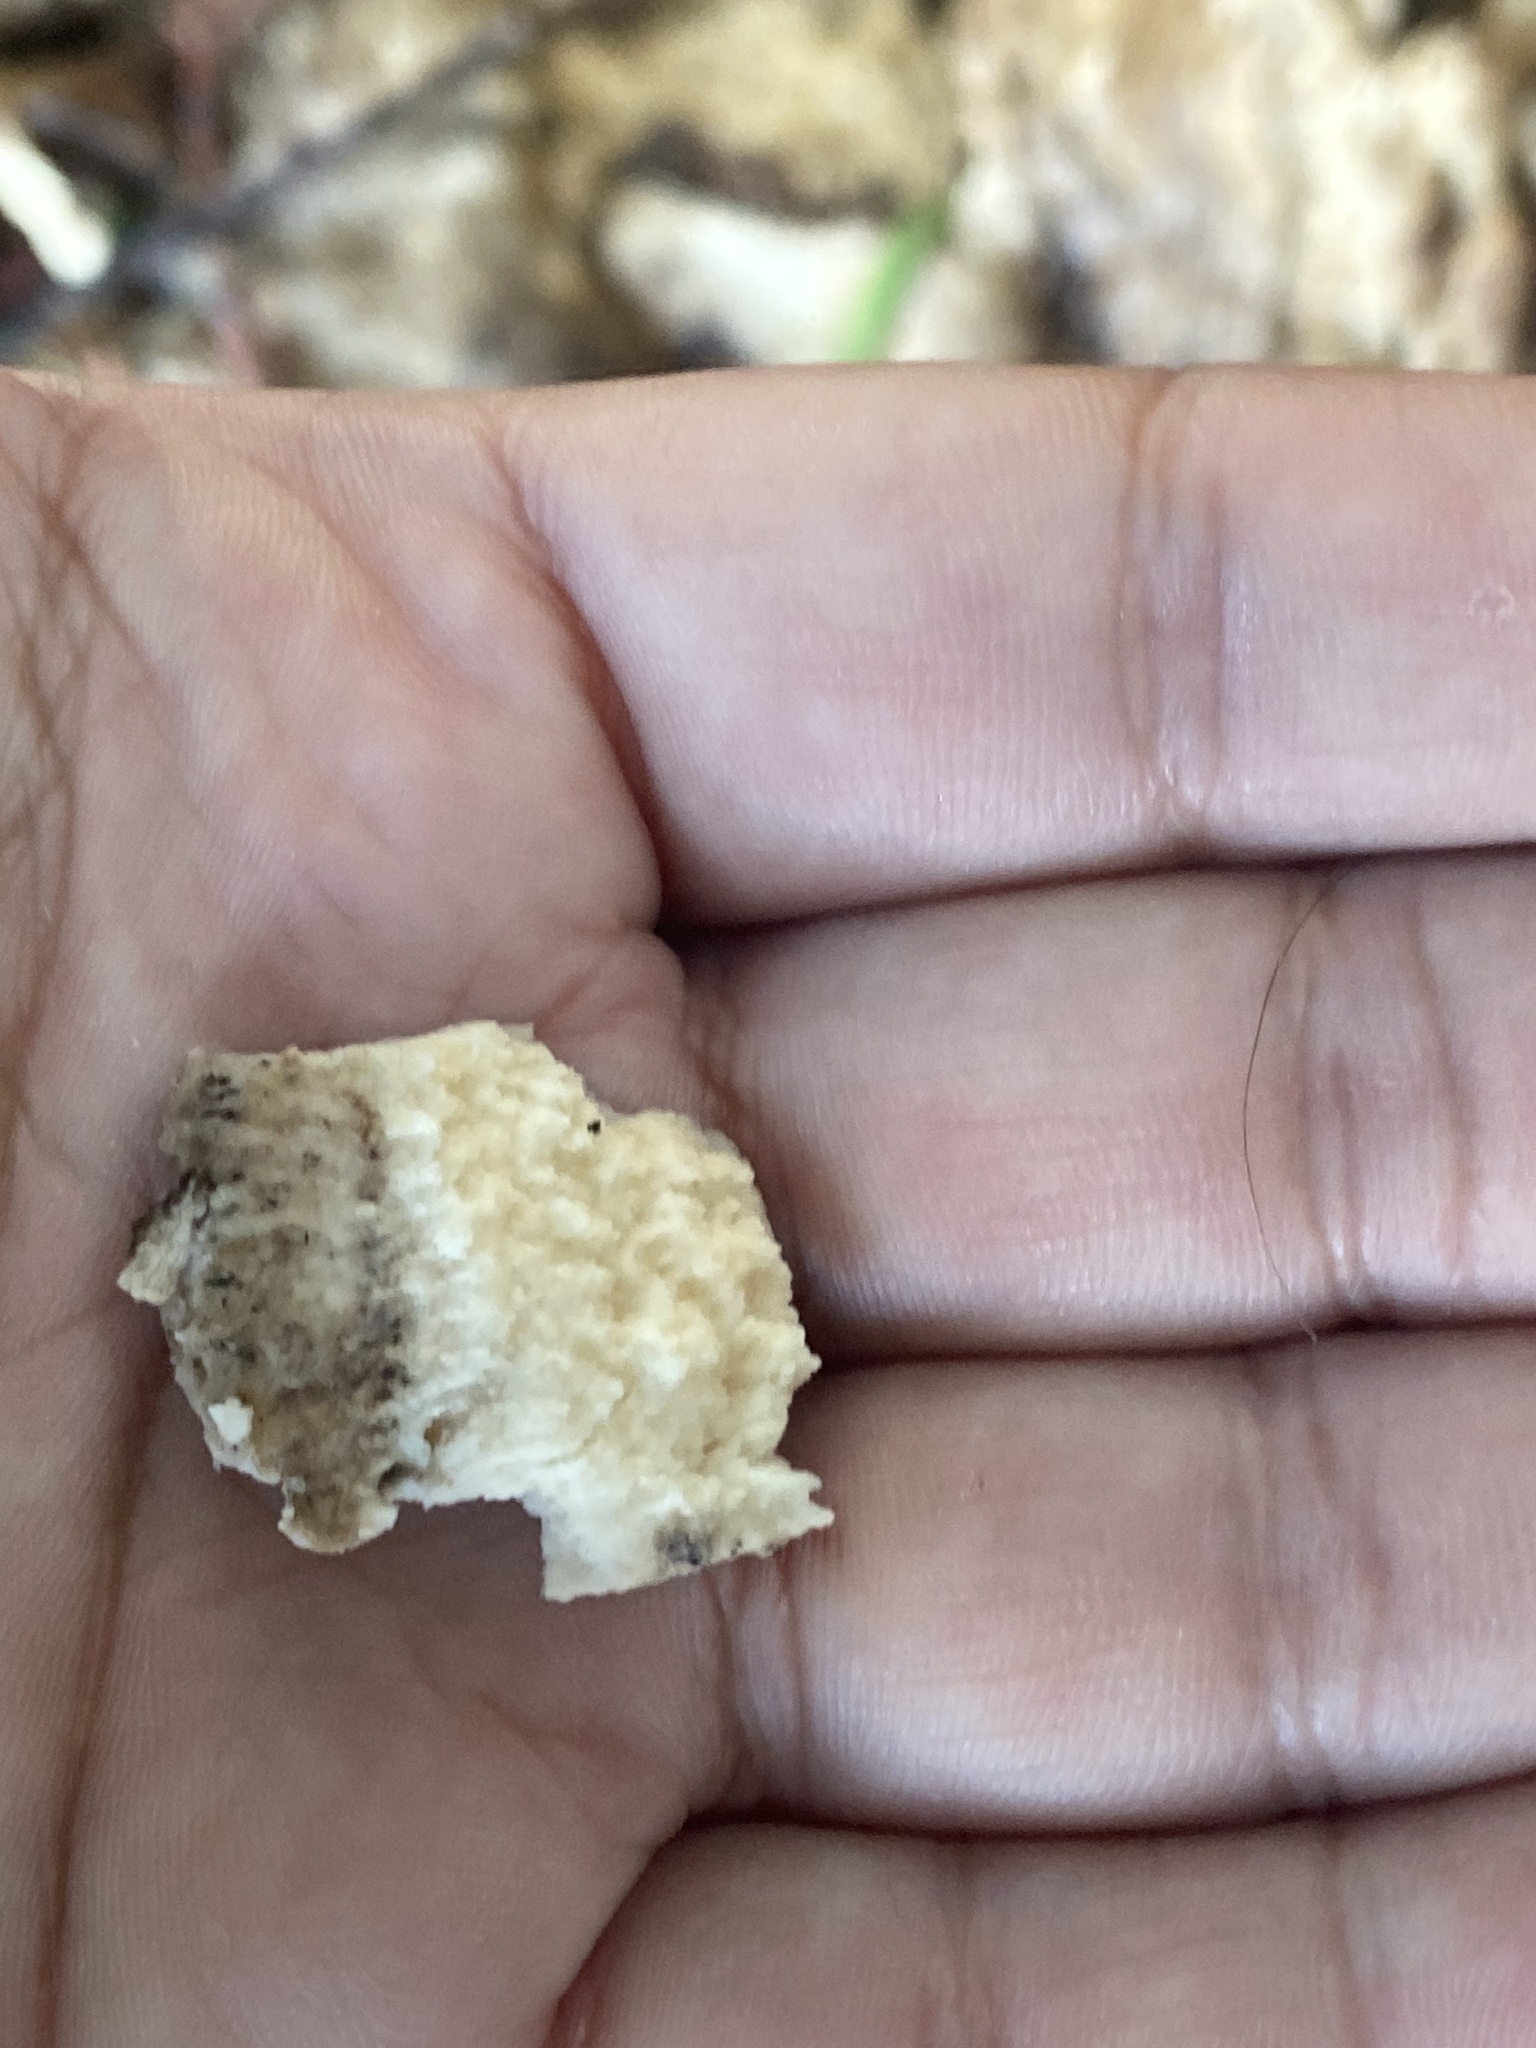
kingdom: Fungi
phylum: Basidiomycota
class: Agaricomycetes
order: Polyporales
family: Laetiporaceae
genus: Laetiporus
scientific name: Laetiporus gilbertsonii
